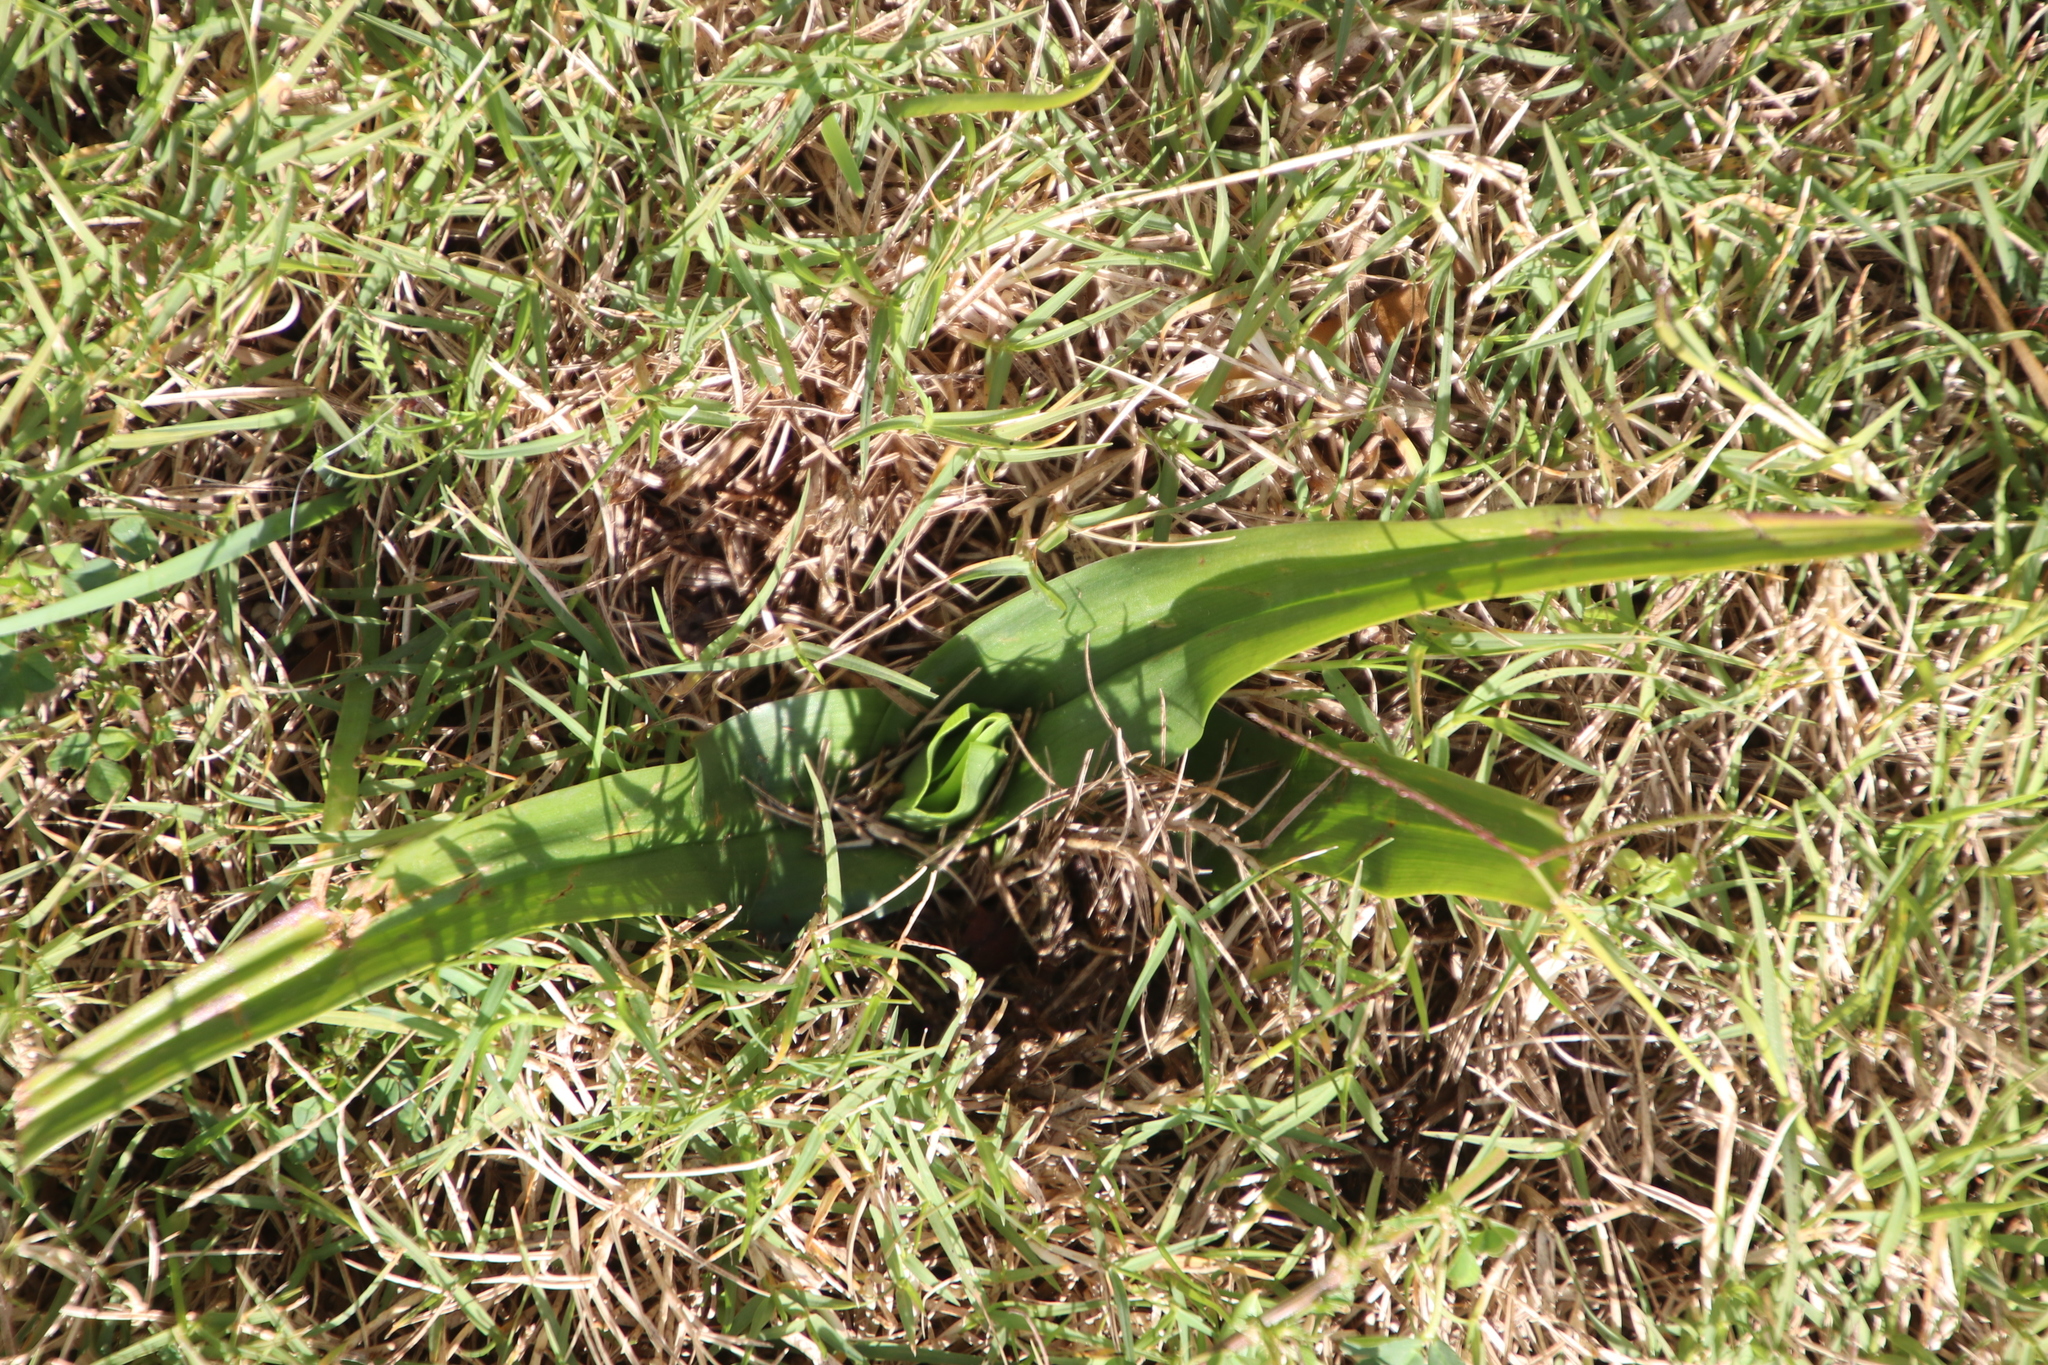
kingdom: Plantae
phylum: Tracheophyta
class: Liliopsida
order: Liliales
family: Colchicaceae
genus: Colchicum
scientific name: Colchicum eucomoides
